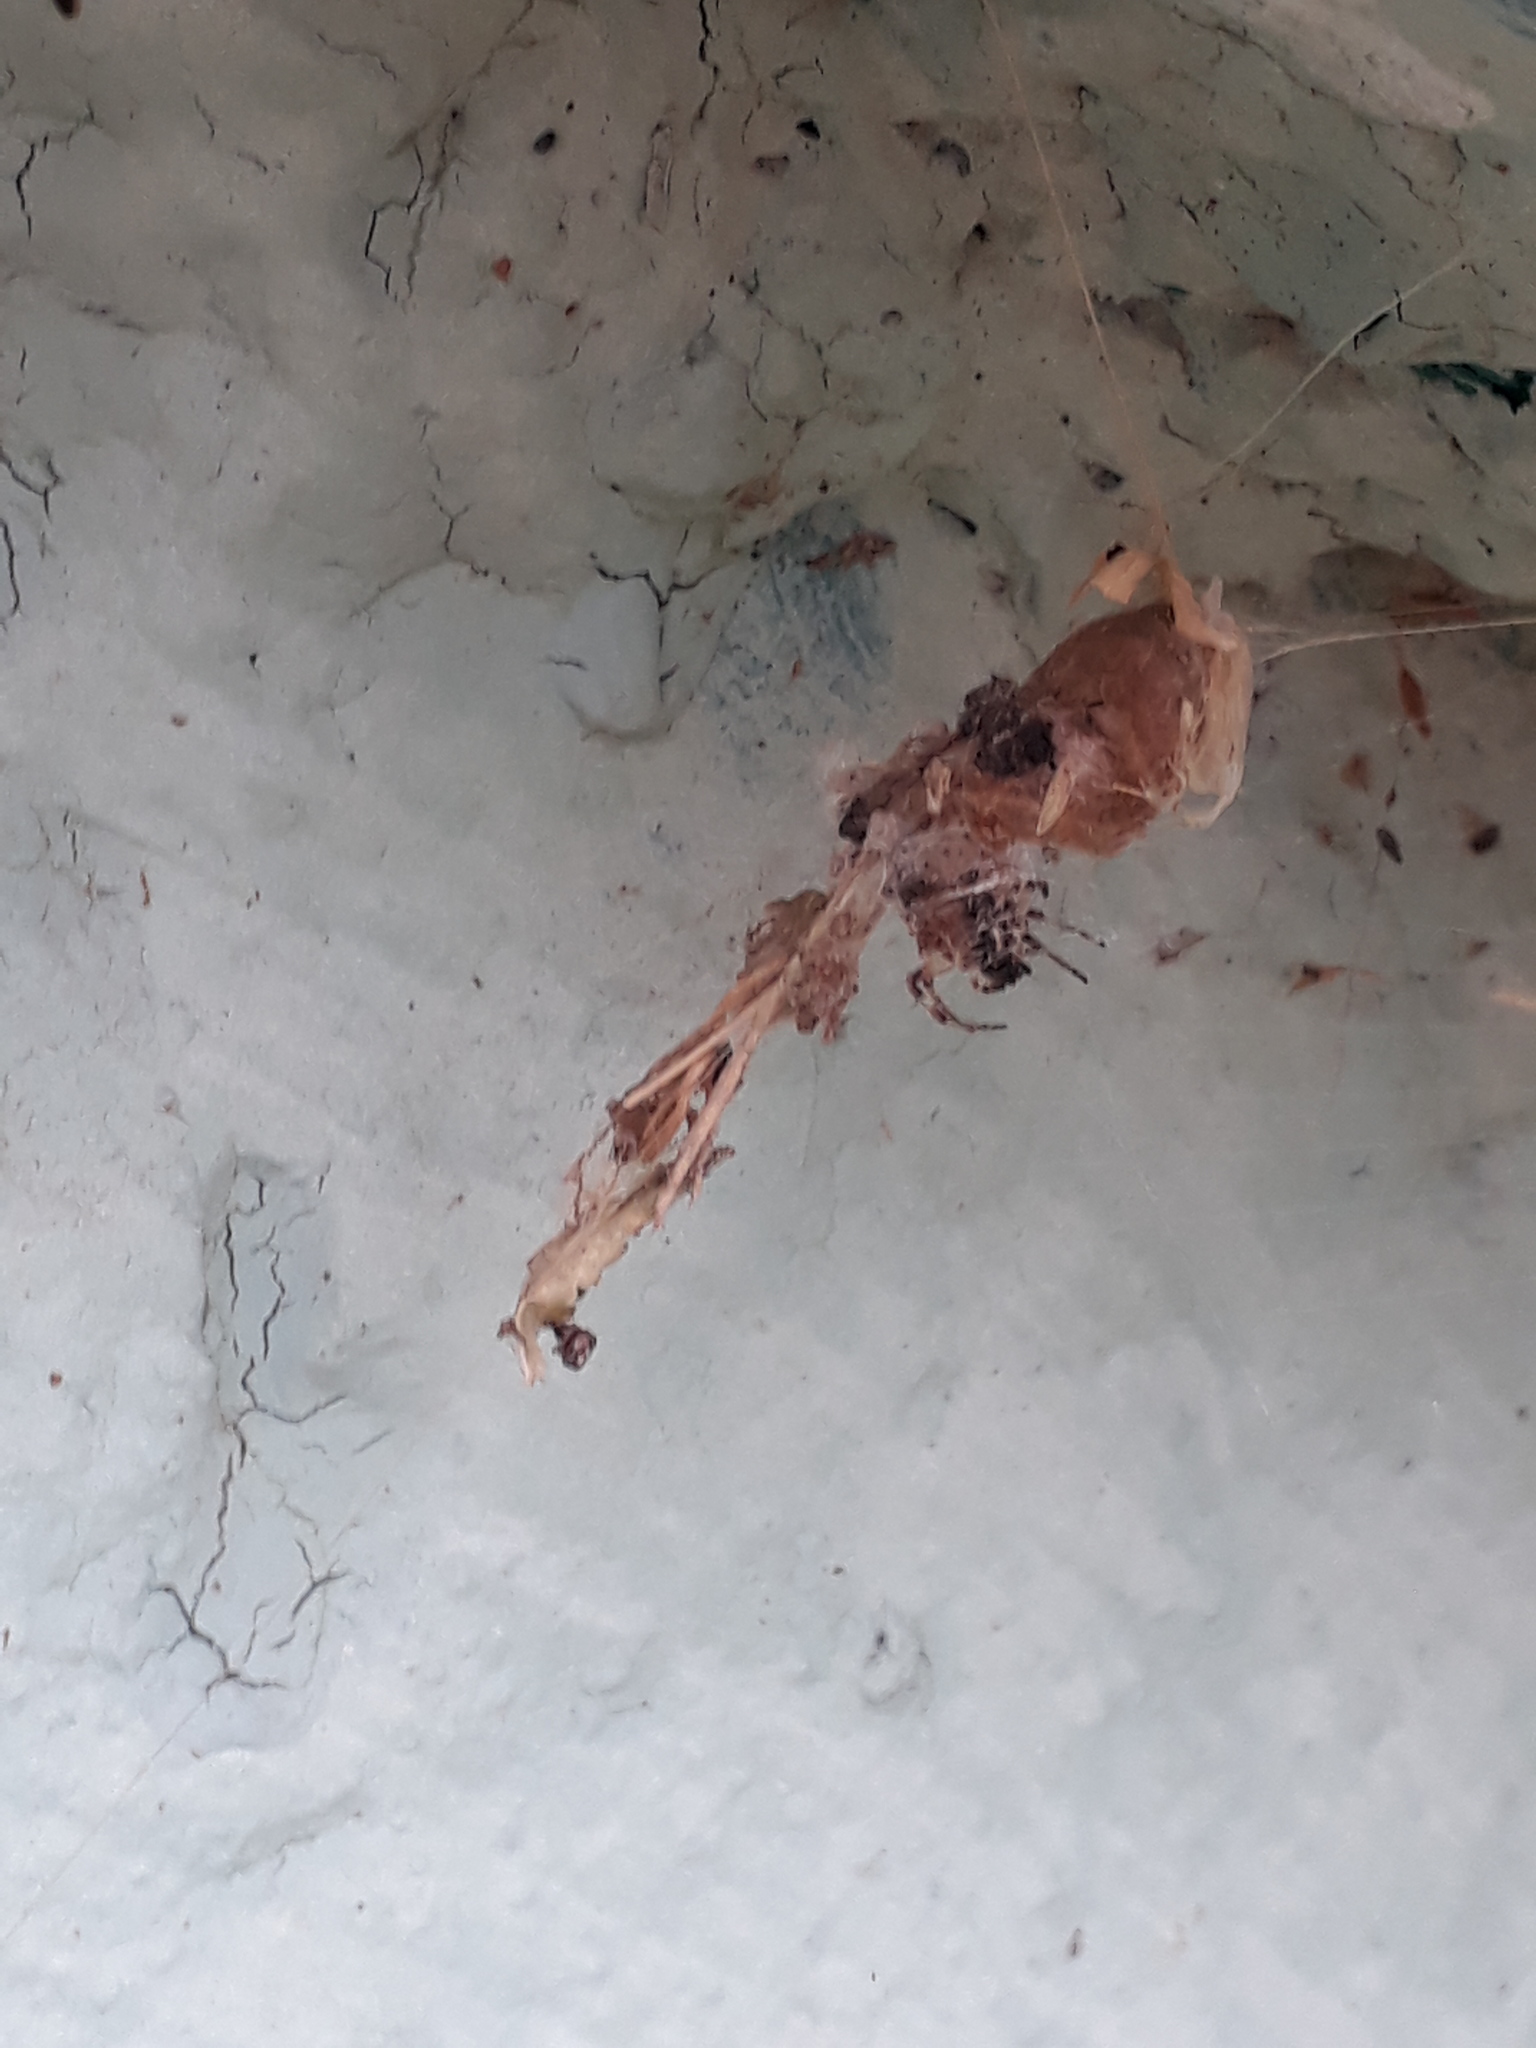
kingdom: Animalia
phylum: Arthropoda
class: Arachnida
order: Araneae
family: Araneidae
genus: Metepeira
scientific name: Metepeira
